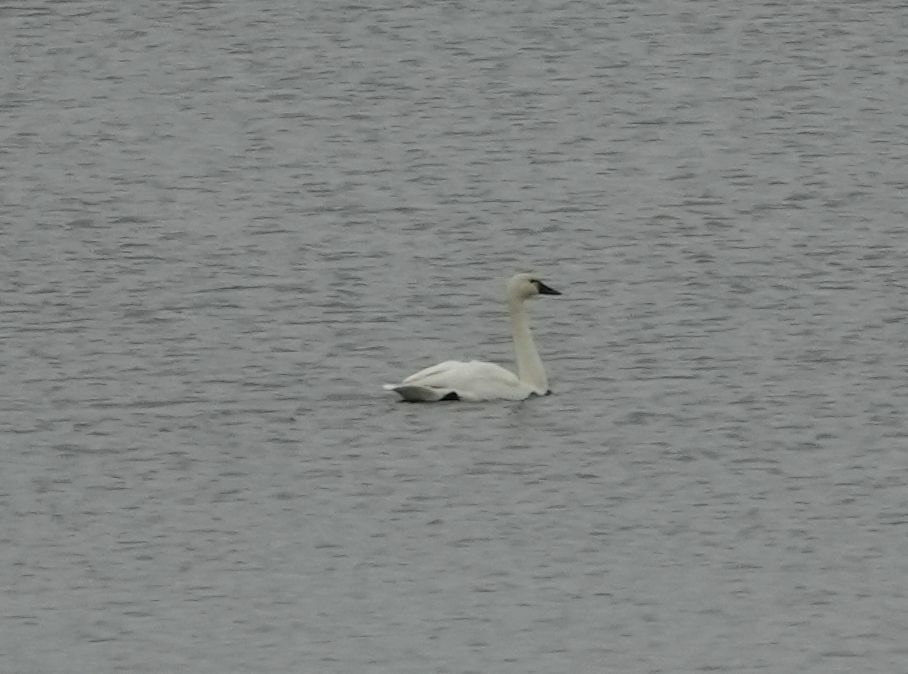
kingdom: Animalia
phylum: Chordata
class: Aves
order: Anseriformes
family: Anatidae
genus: Cygnus
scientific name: Cygnus columbianus
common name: Tundra swan
